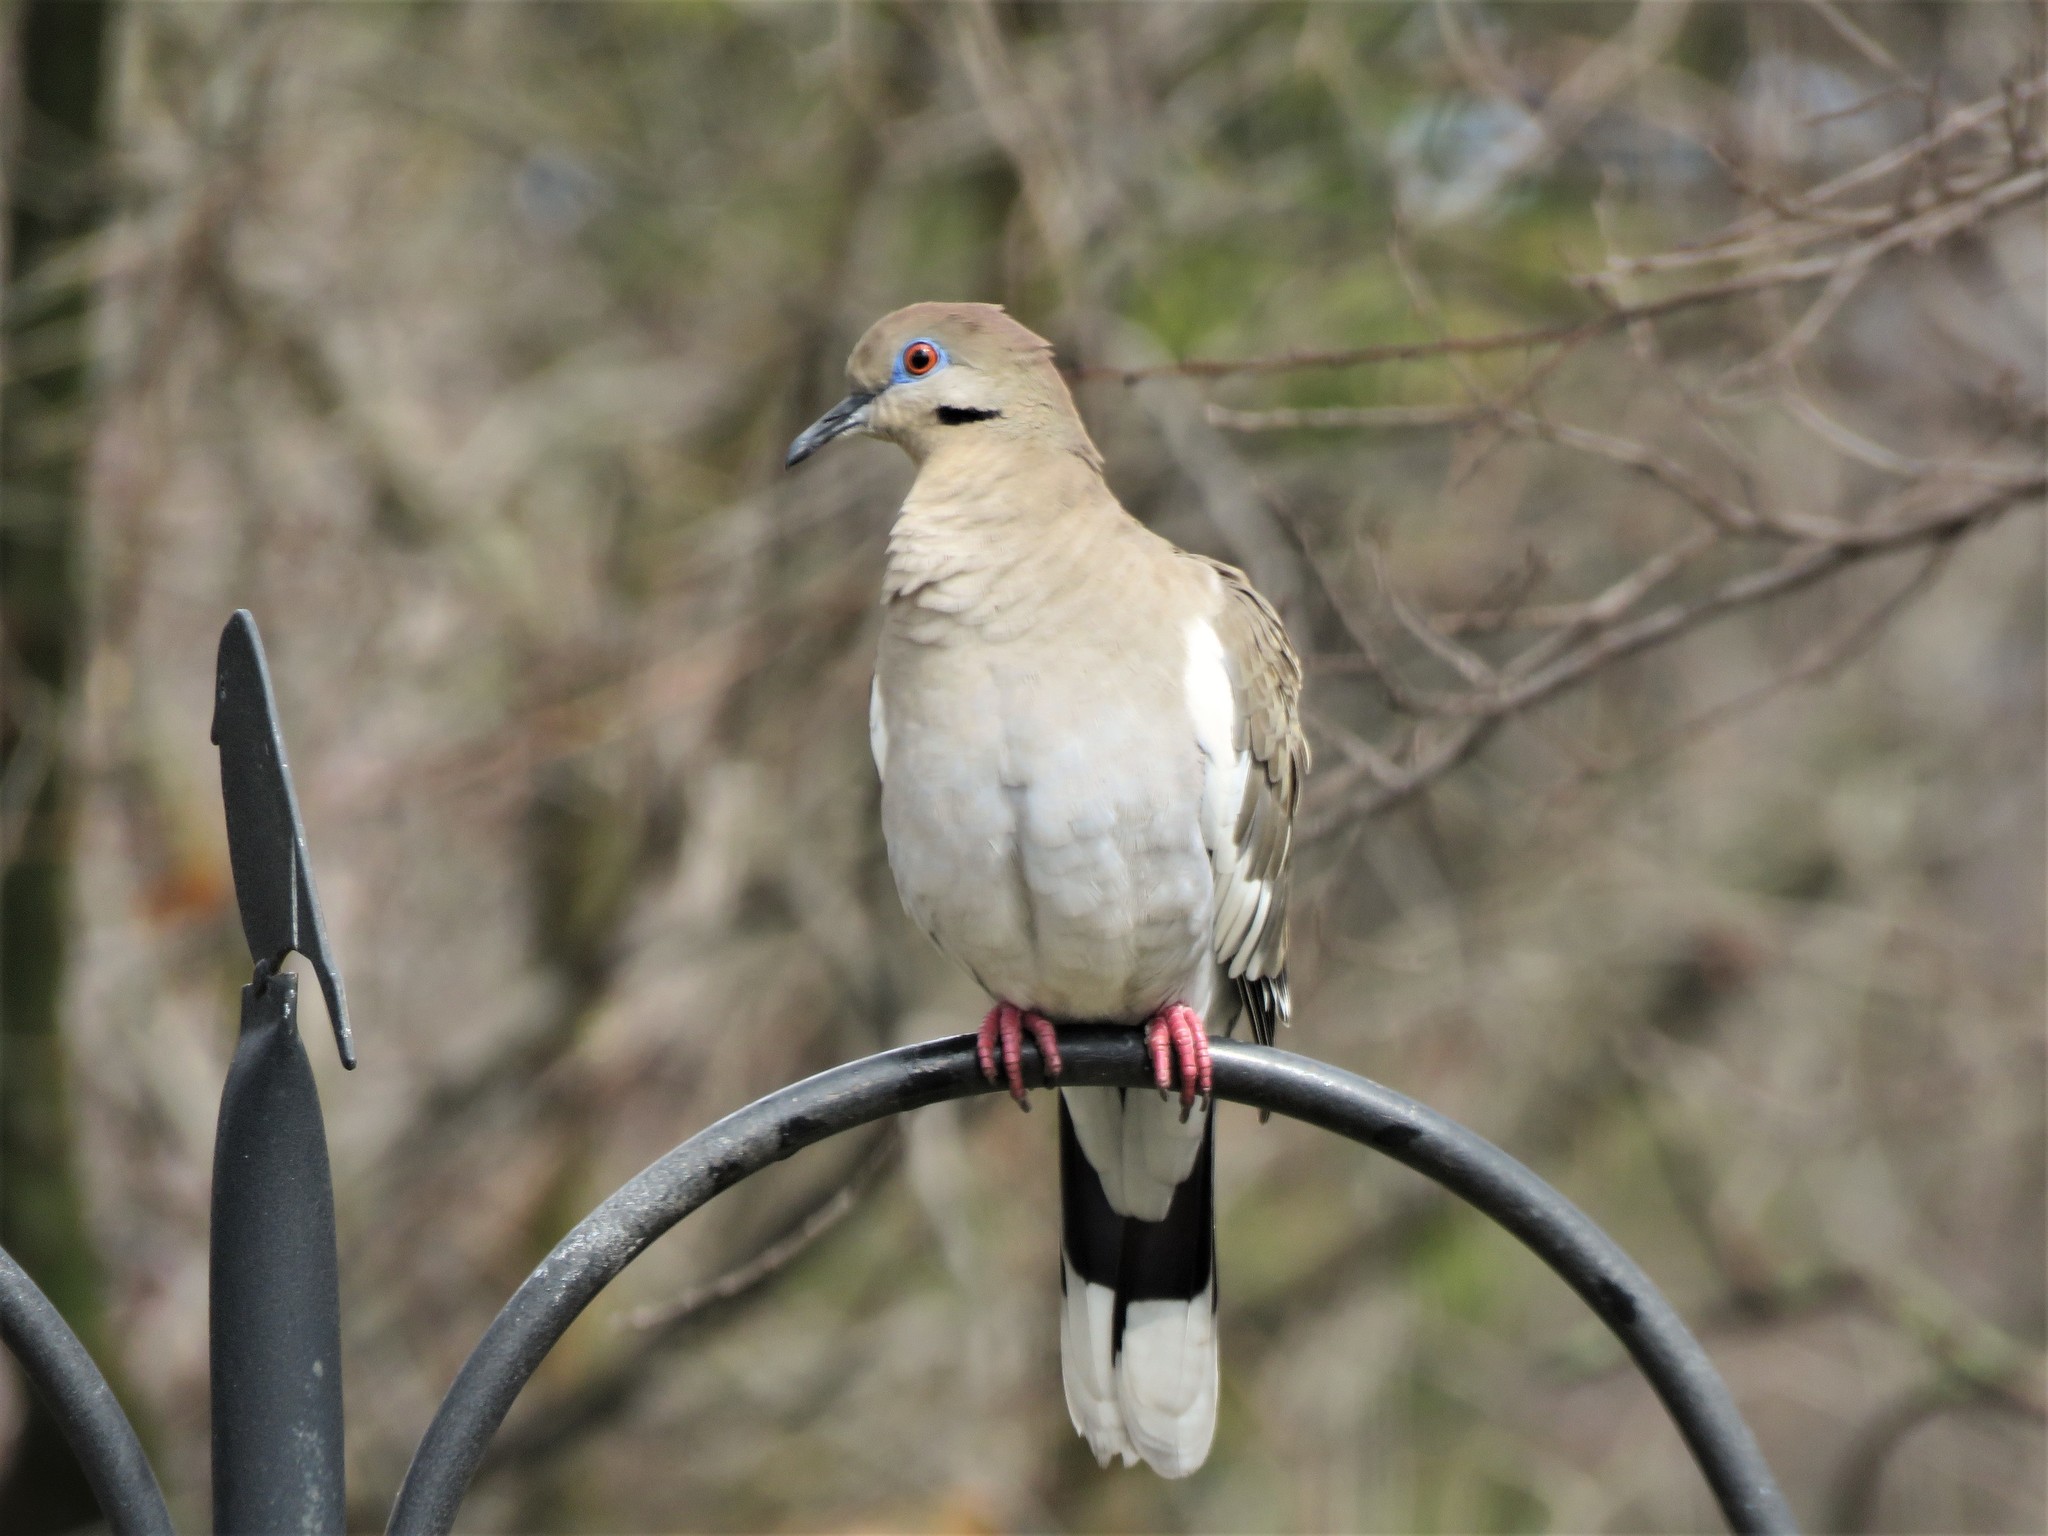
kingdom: Animalia
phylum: Chordata
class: Aves
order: Columbiformes
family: Columbidae
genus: Zenaida
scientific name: Zenaida asiatica
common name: White-winged dove
